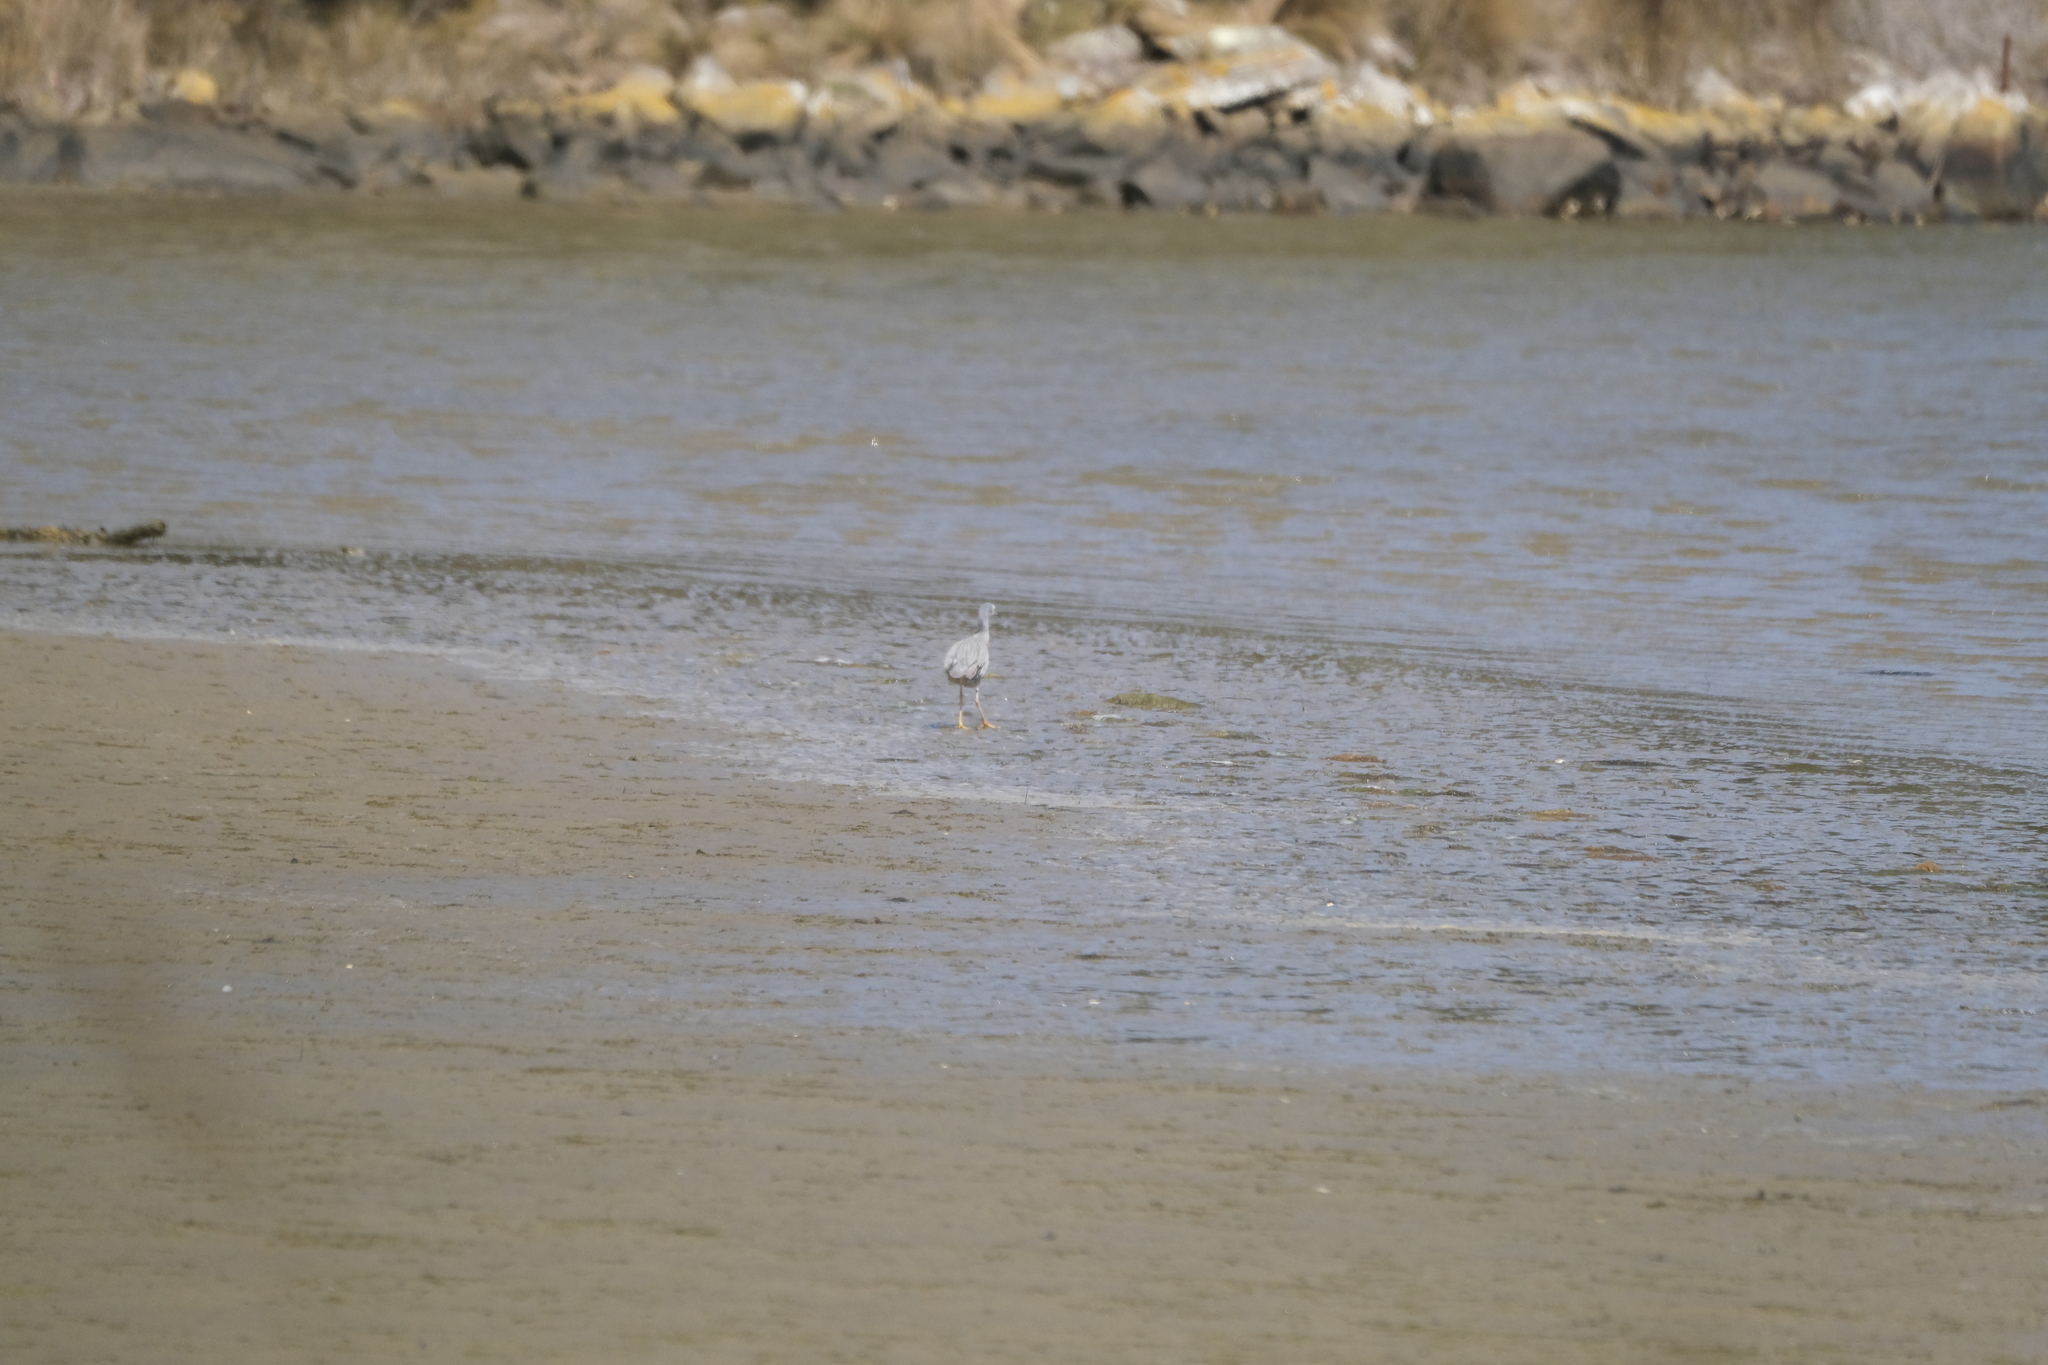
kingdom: Animalia
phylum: Chordata
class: Aves
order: Pelecaniformes
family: Ardeidae
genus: Egretta
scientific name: Egretta novaehollandiae
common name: White-faced heron
